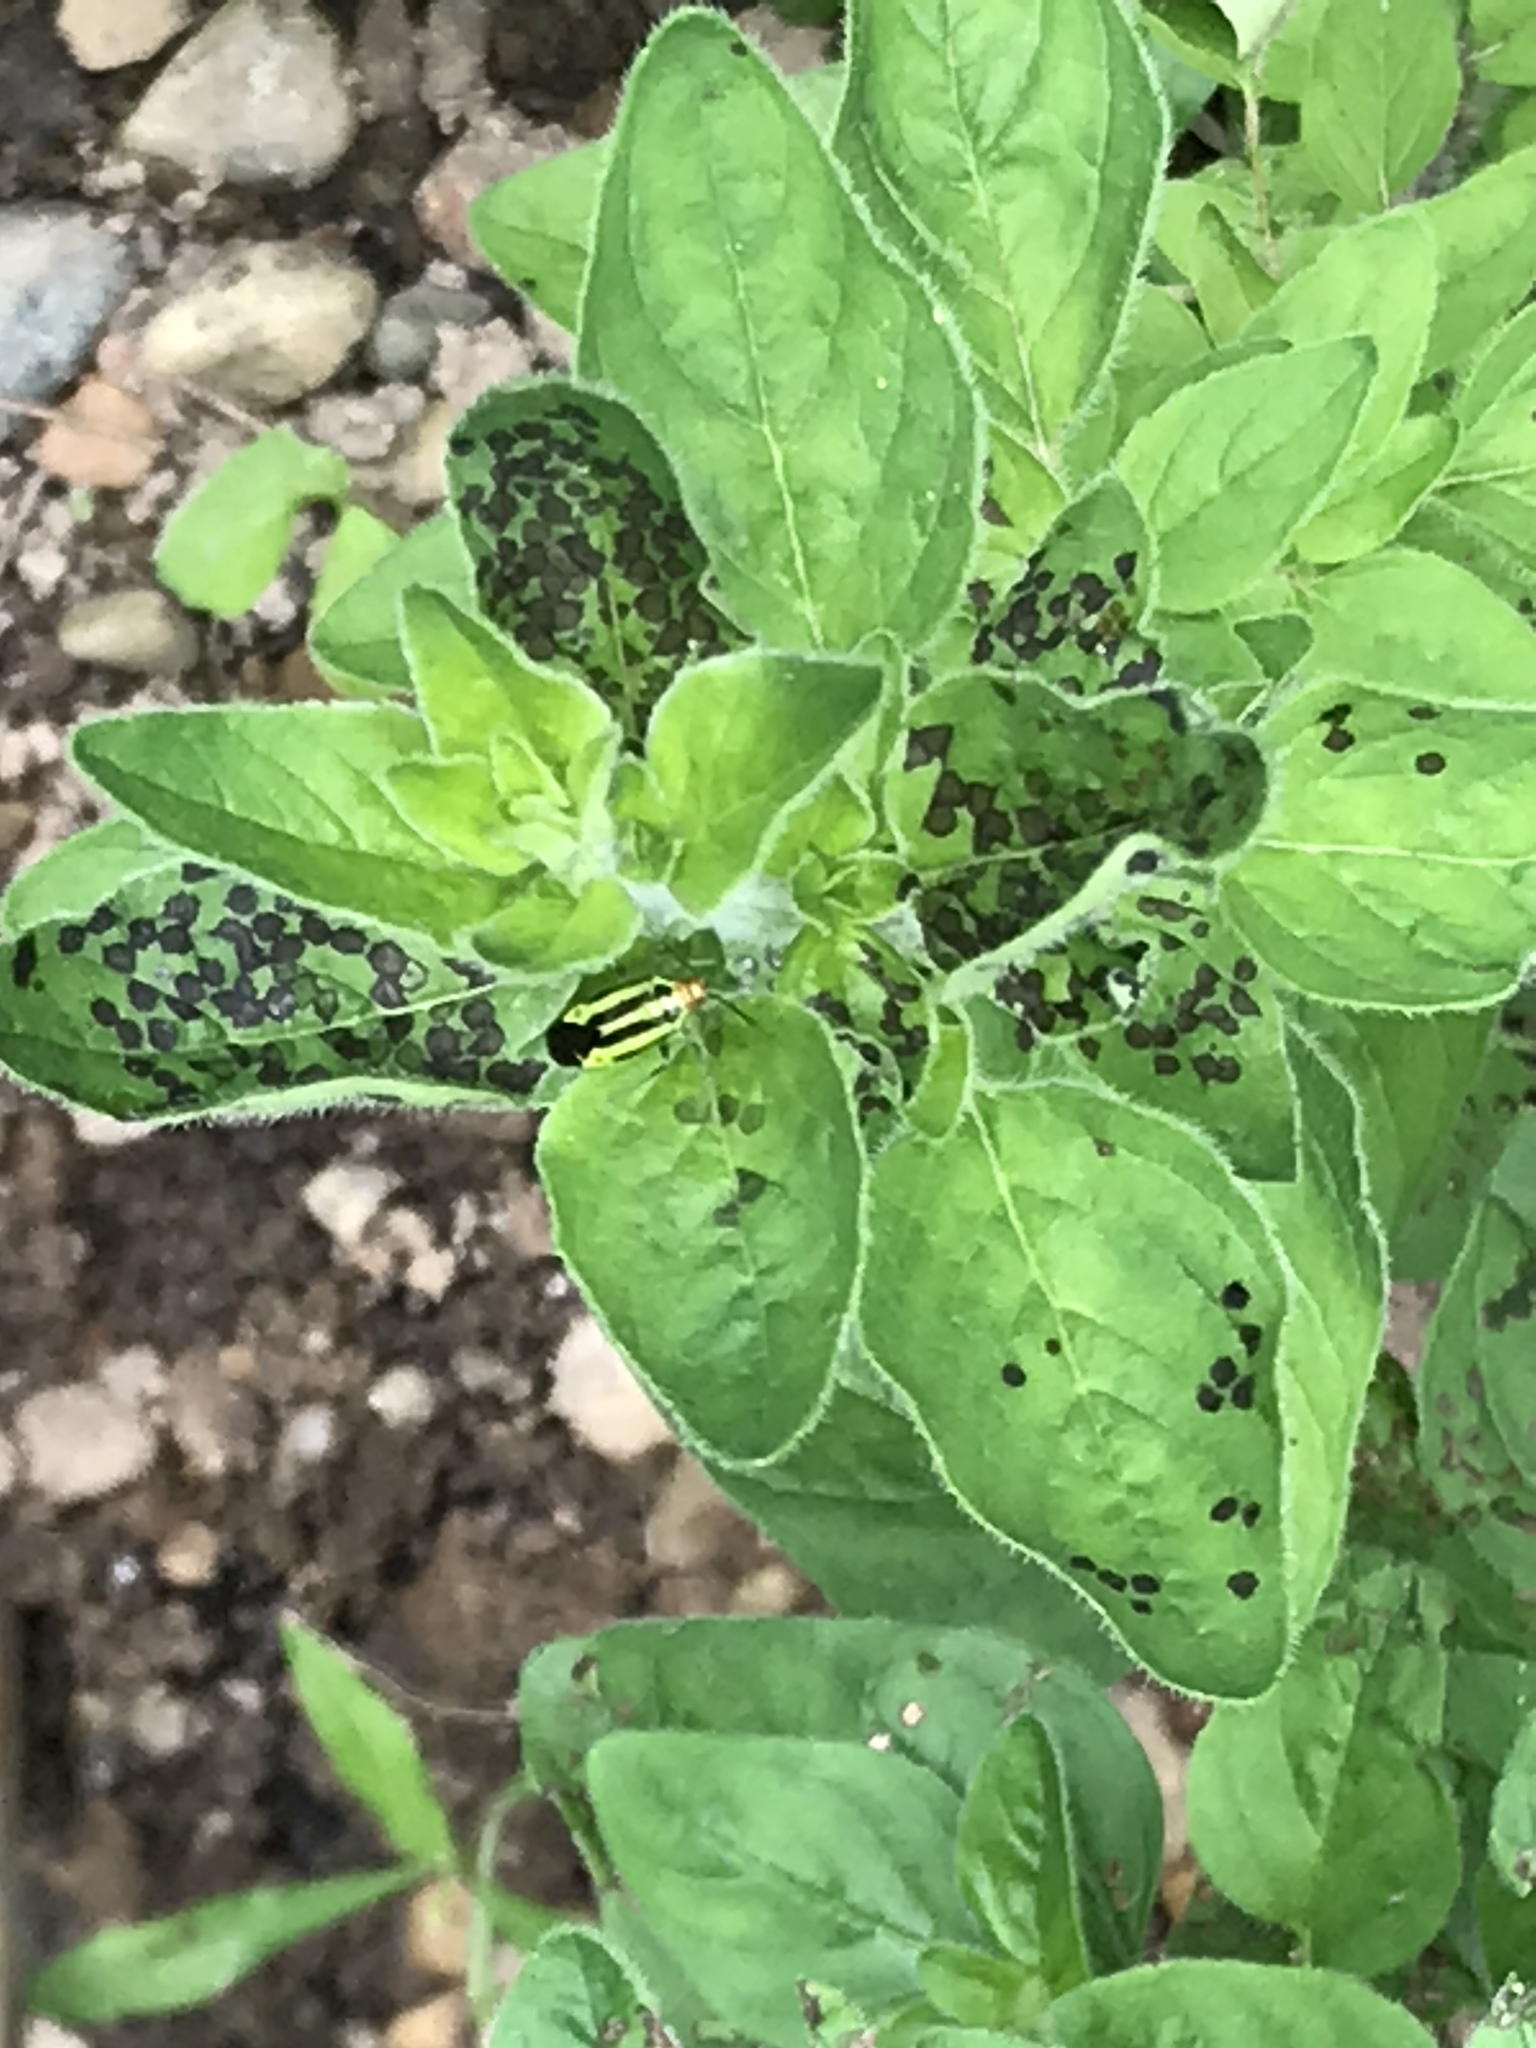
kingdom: Animalia
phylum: Arthropoda
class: Insecta
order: Hemiptera
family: Miridae
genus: Poecilocapsus
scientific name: Poecilocapsus lineatus
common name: Four-lined plant bug
